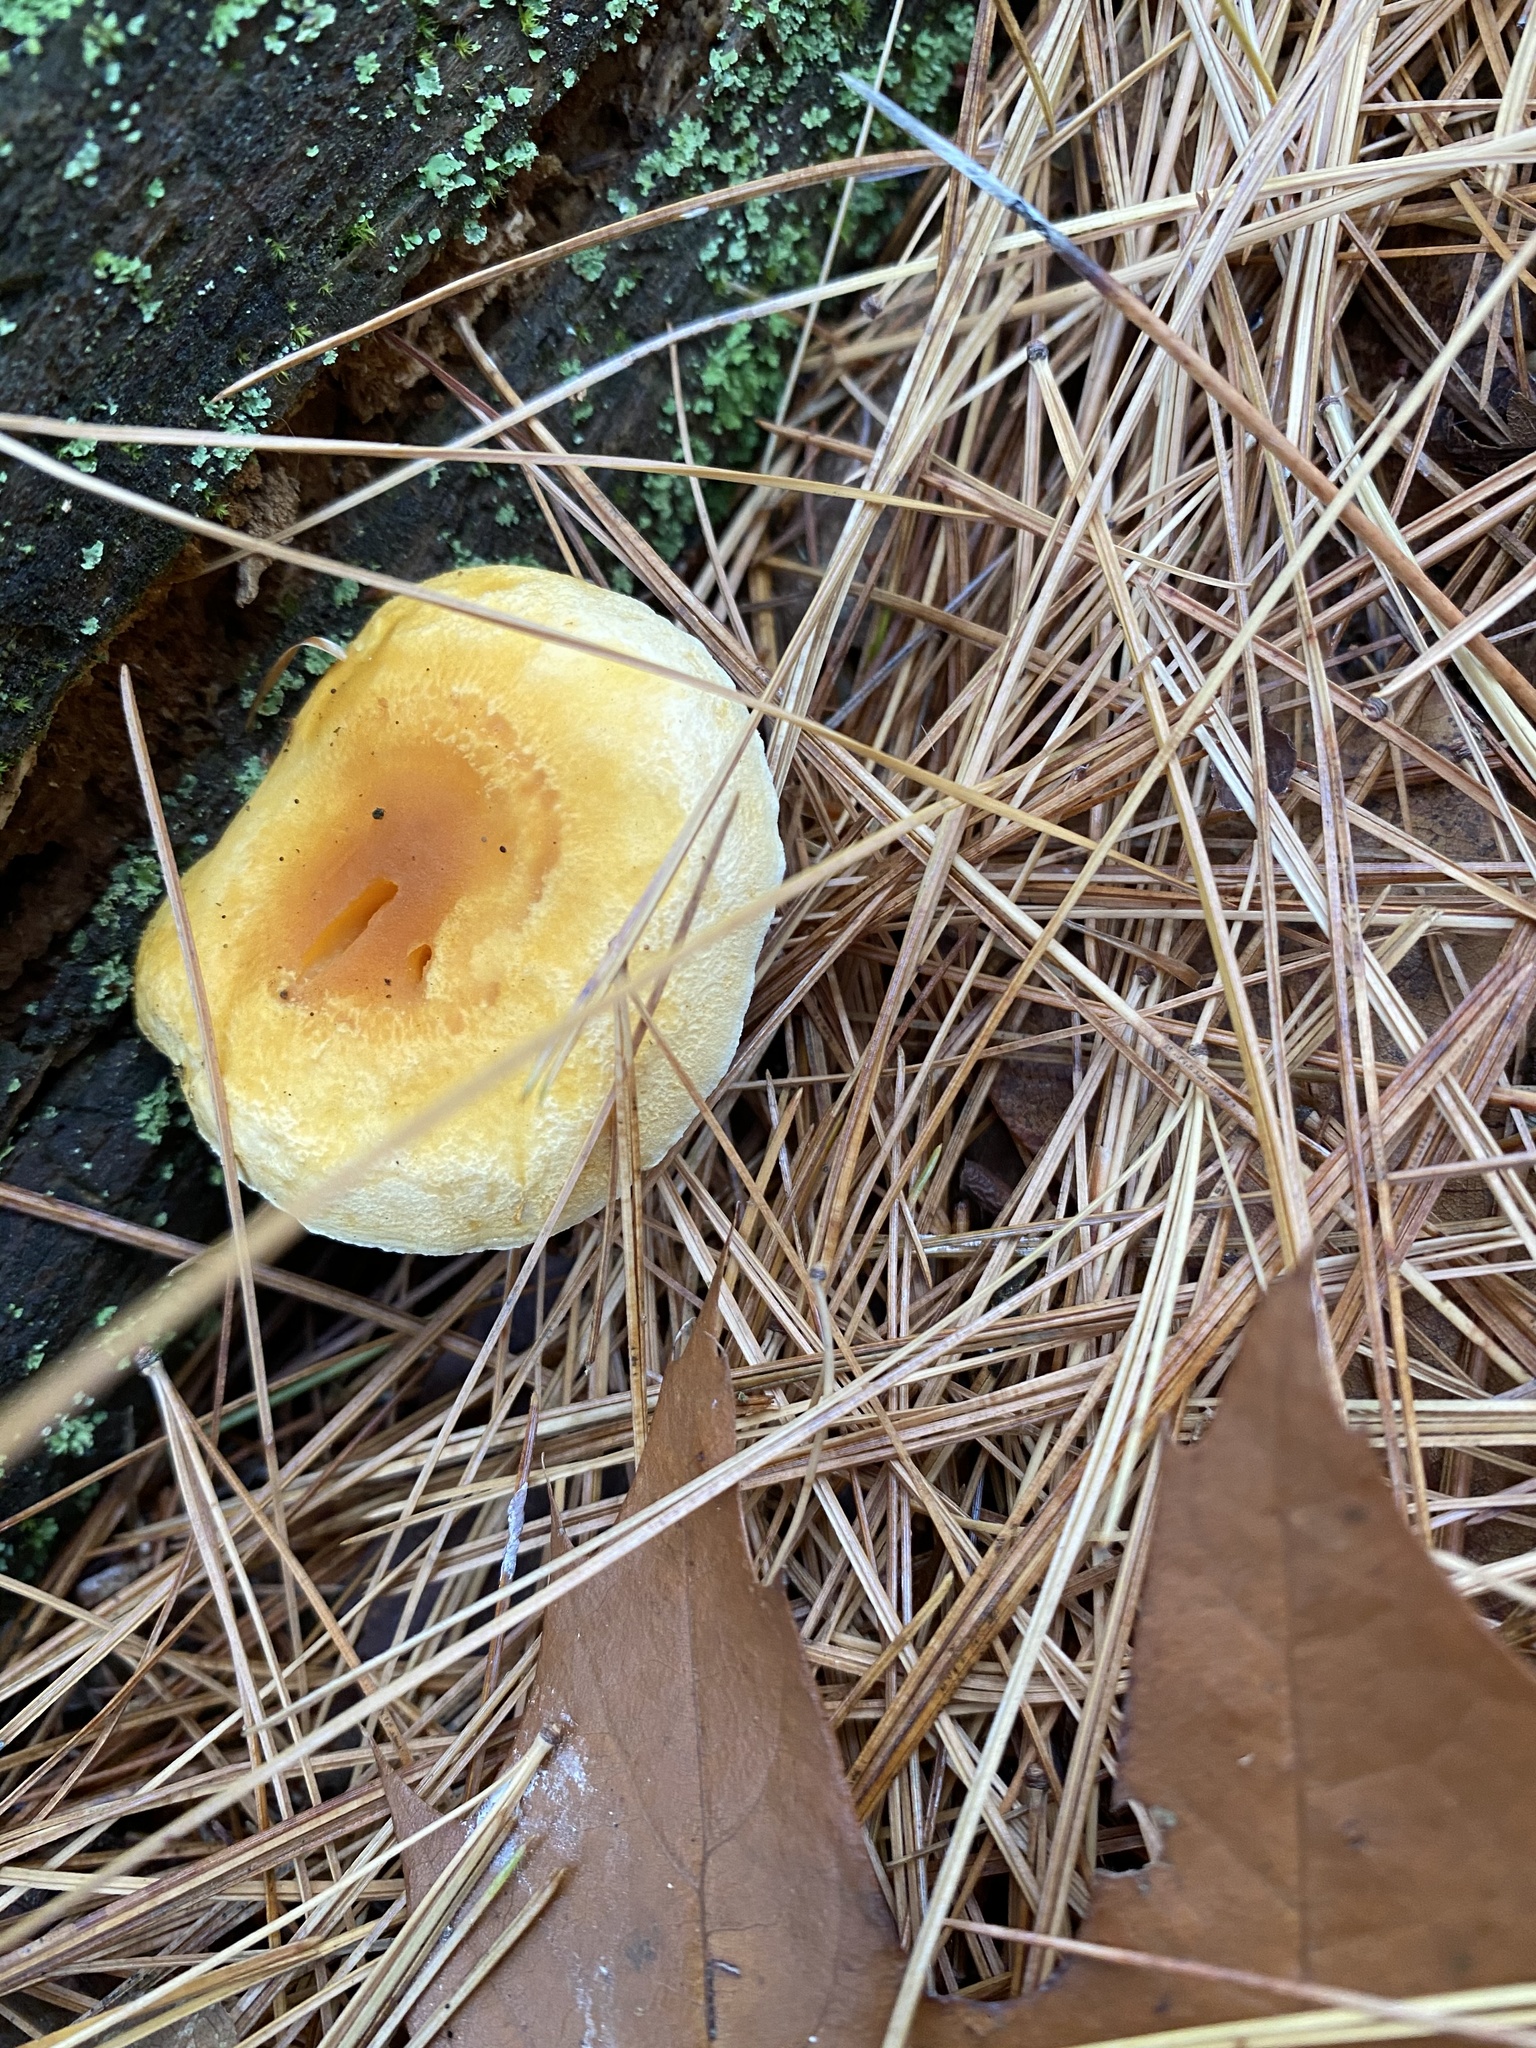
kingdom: Fungi
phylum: Basidiomycota
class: Agaricomycetes
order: Boletales
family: Hygrophoropsidaceae
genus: Hygrophoropsis
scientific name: Hygrophoropsis aurantiaca
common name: False chanterelle
